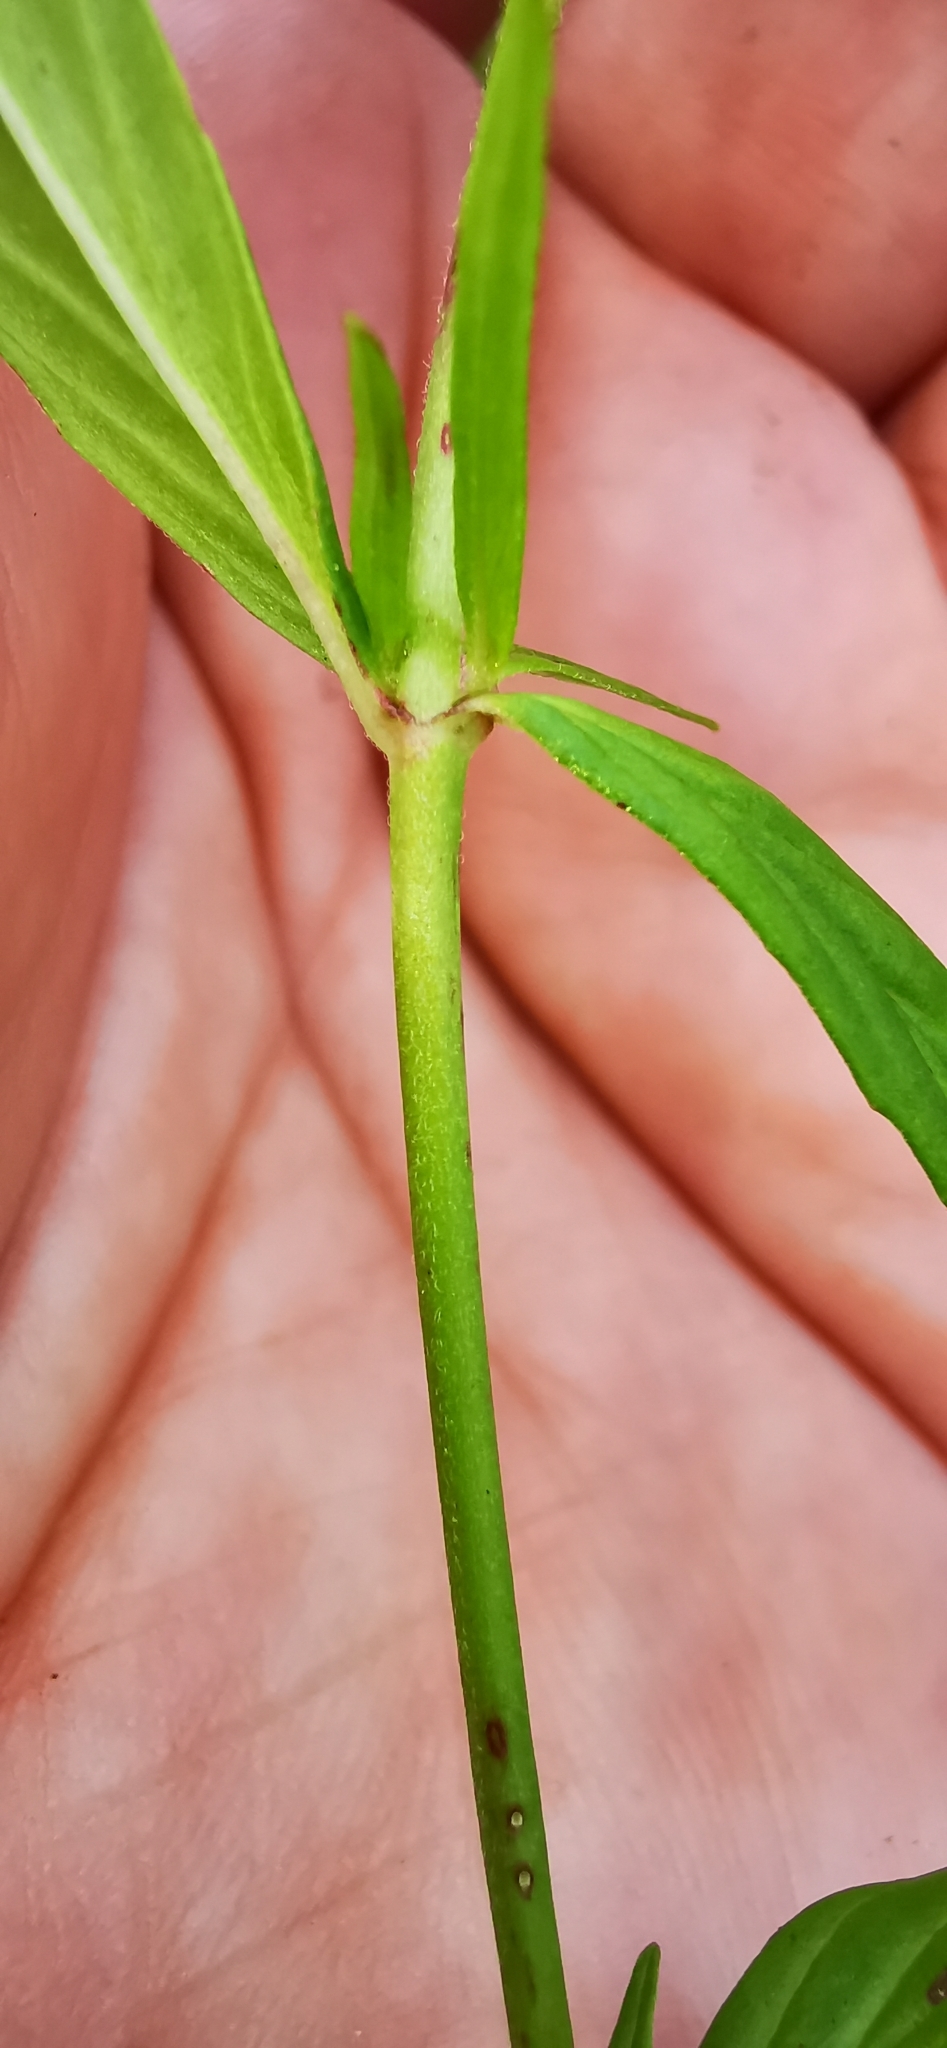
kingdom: Plantae
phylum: Tracheophyta
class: Magnoliopsida
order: Myrtales
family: Onagraceae
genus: Epilobium
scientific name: Epilobium palustre
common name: Marsh willowherb
